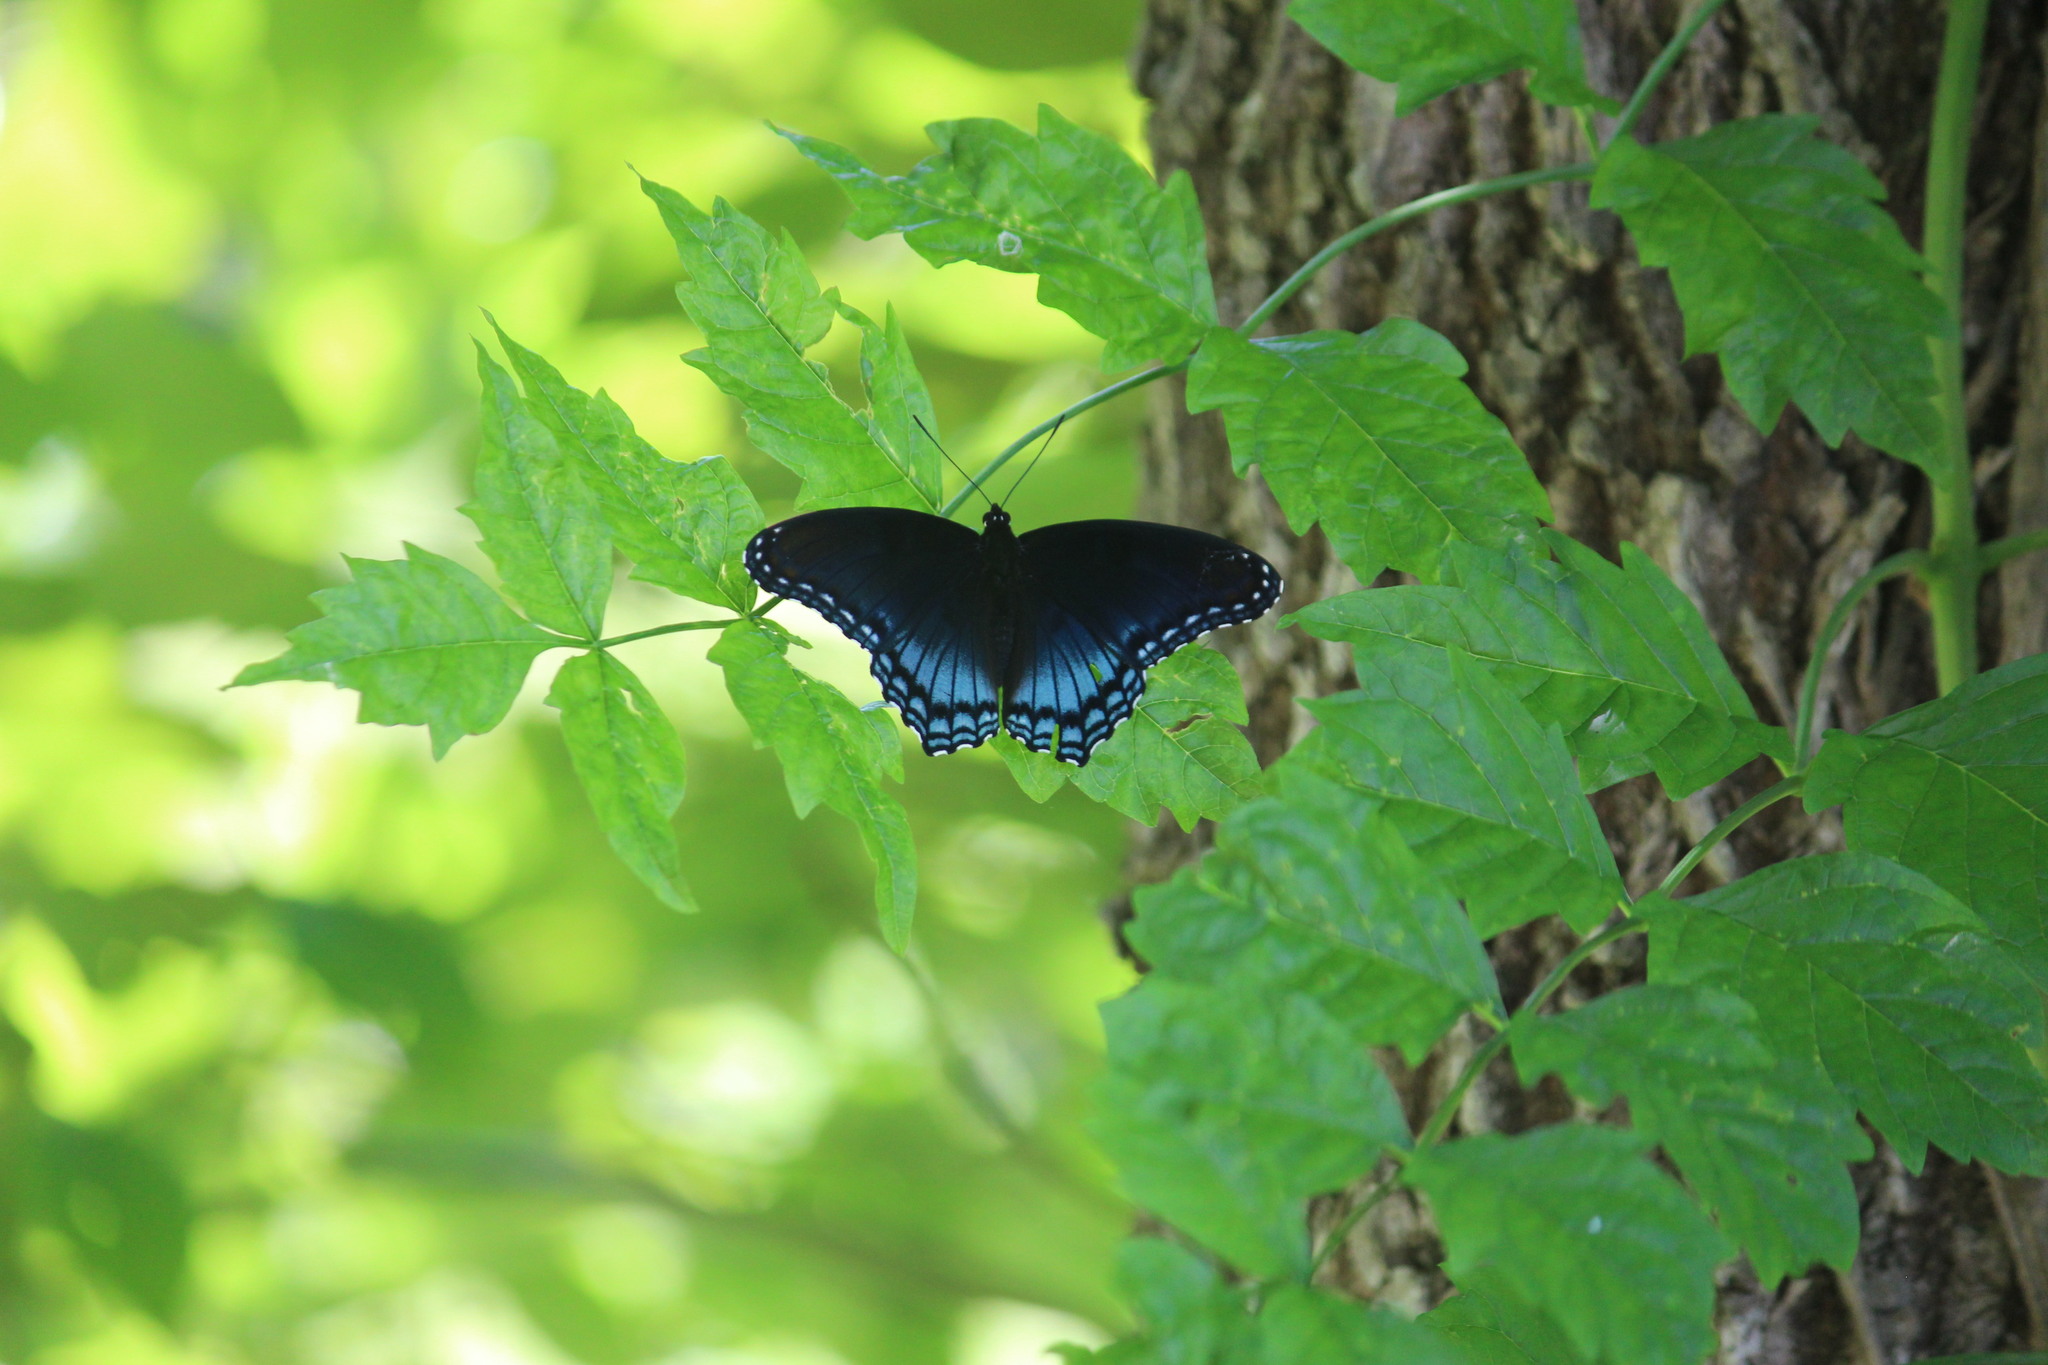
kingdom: Animalia
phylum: Arthropoda
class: Insecta
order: Lepidoptera
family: Nymphalidae
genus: Limenitis
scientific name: Limenitis astyanax
